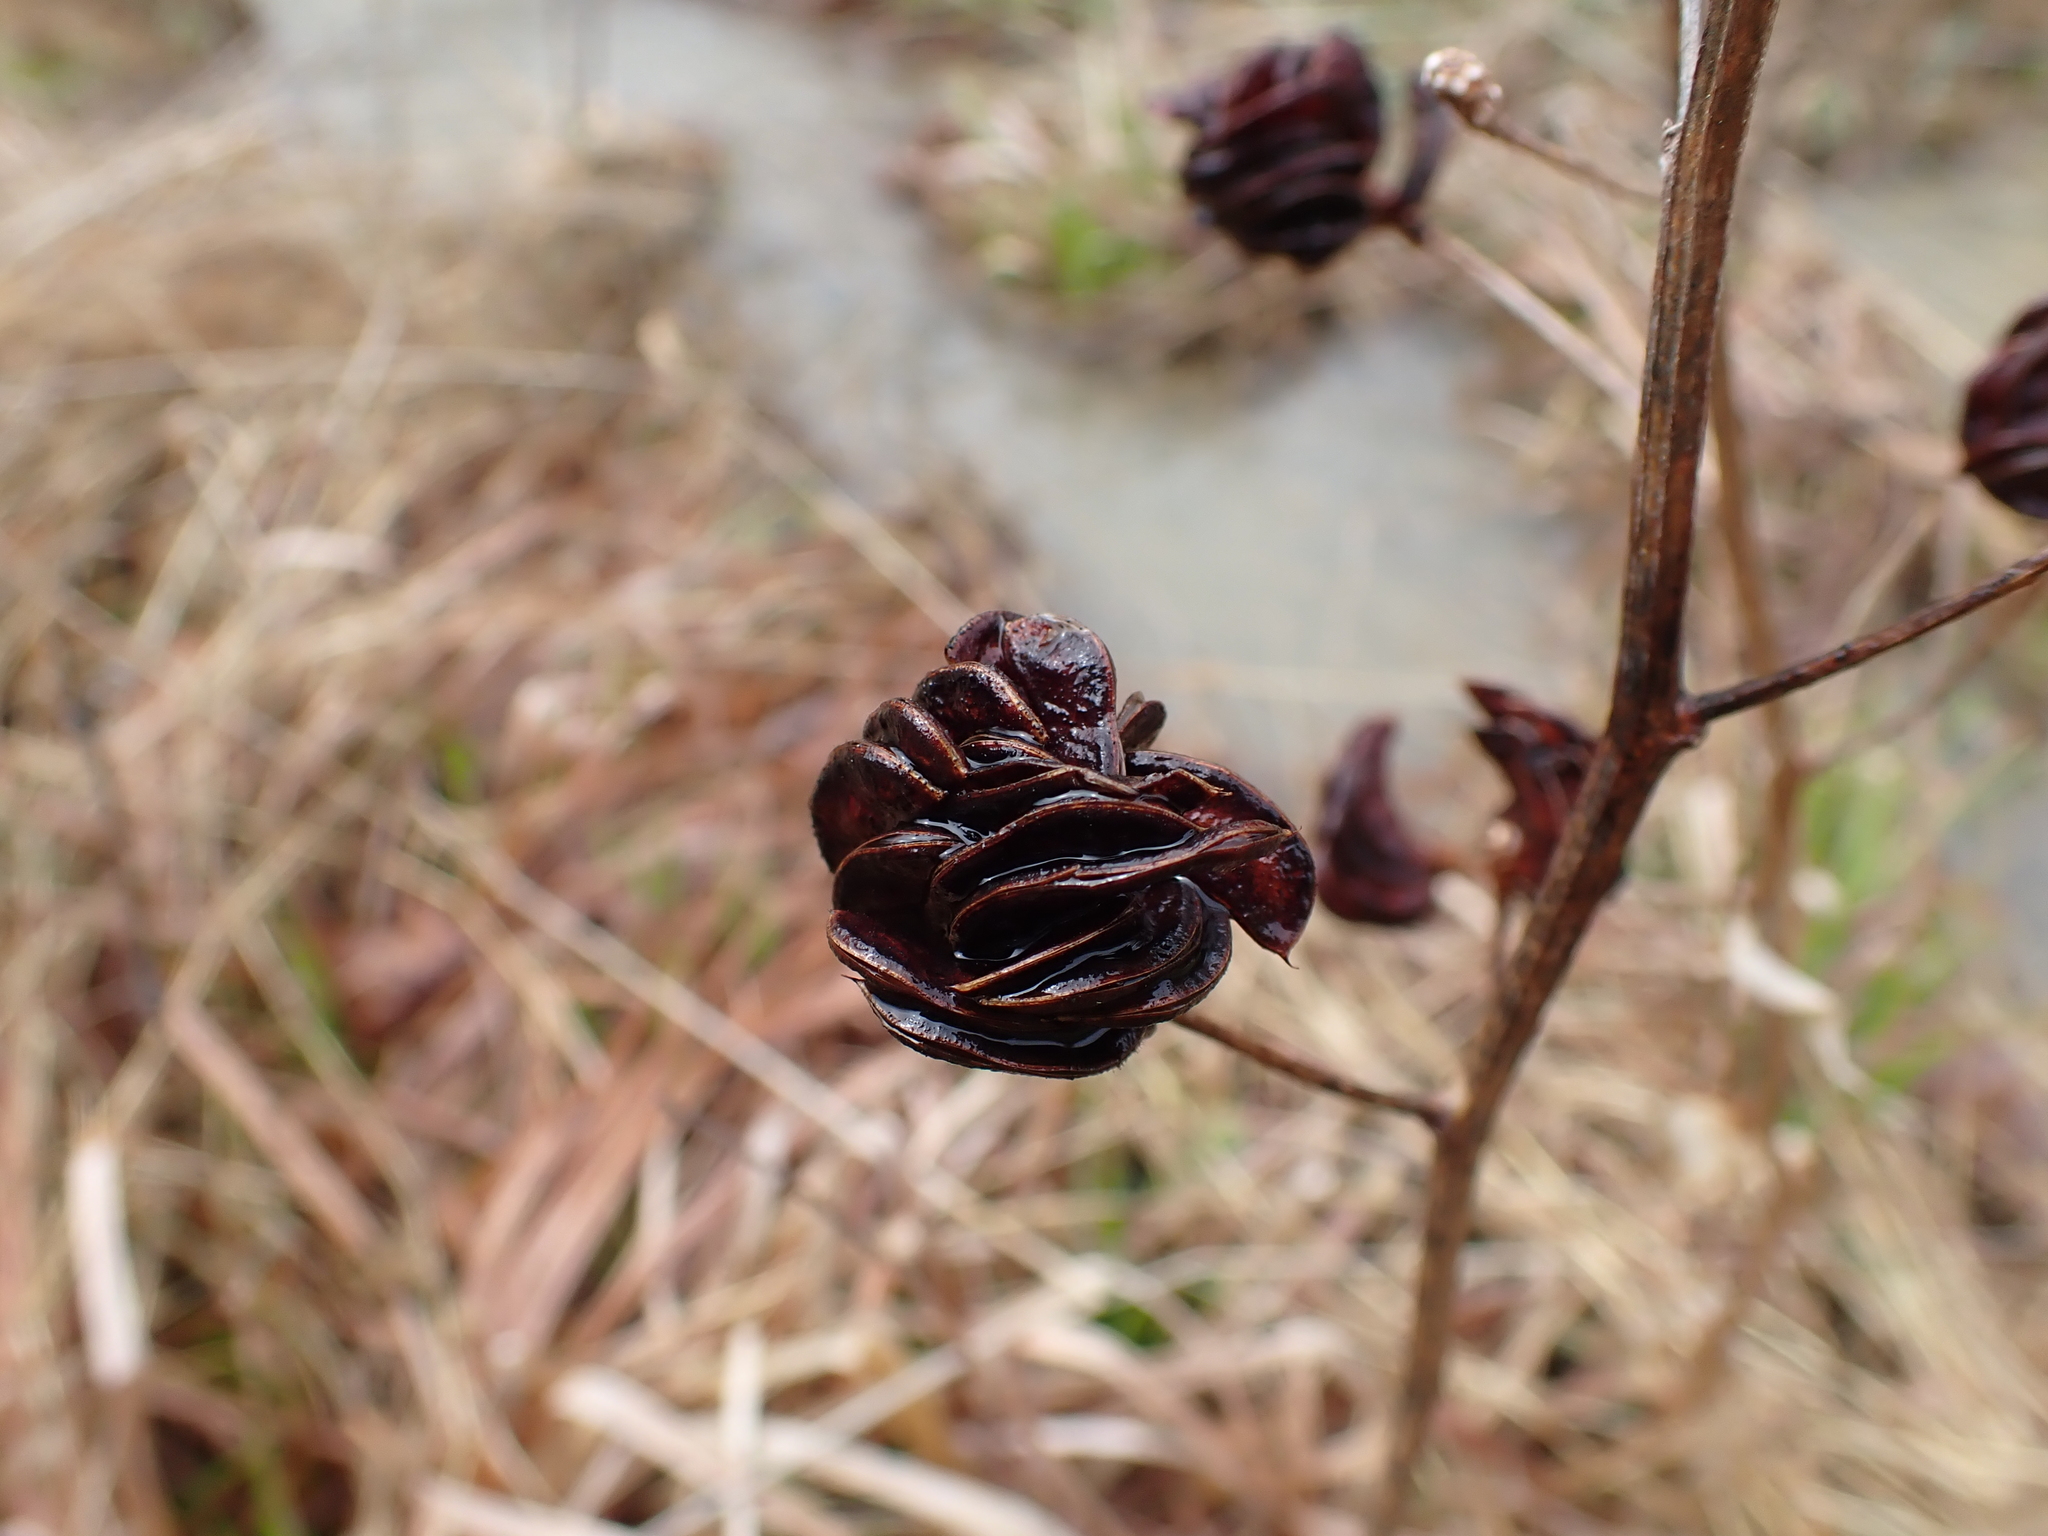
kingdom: Plantae
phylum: Tracheophyta
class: Magnoliopsida
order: Fabales
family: Fabaceae
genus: Desmanthus
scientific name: Desmanthus illinoensis
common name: Illinois bundle-flower
